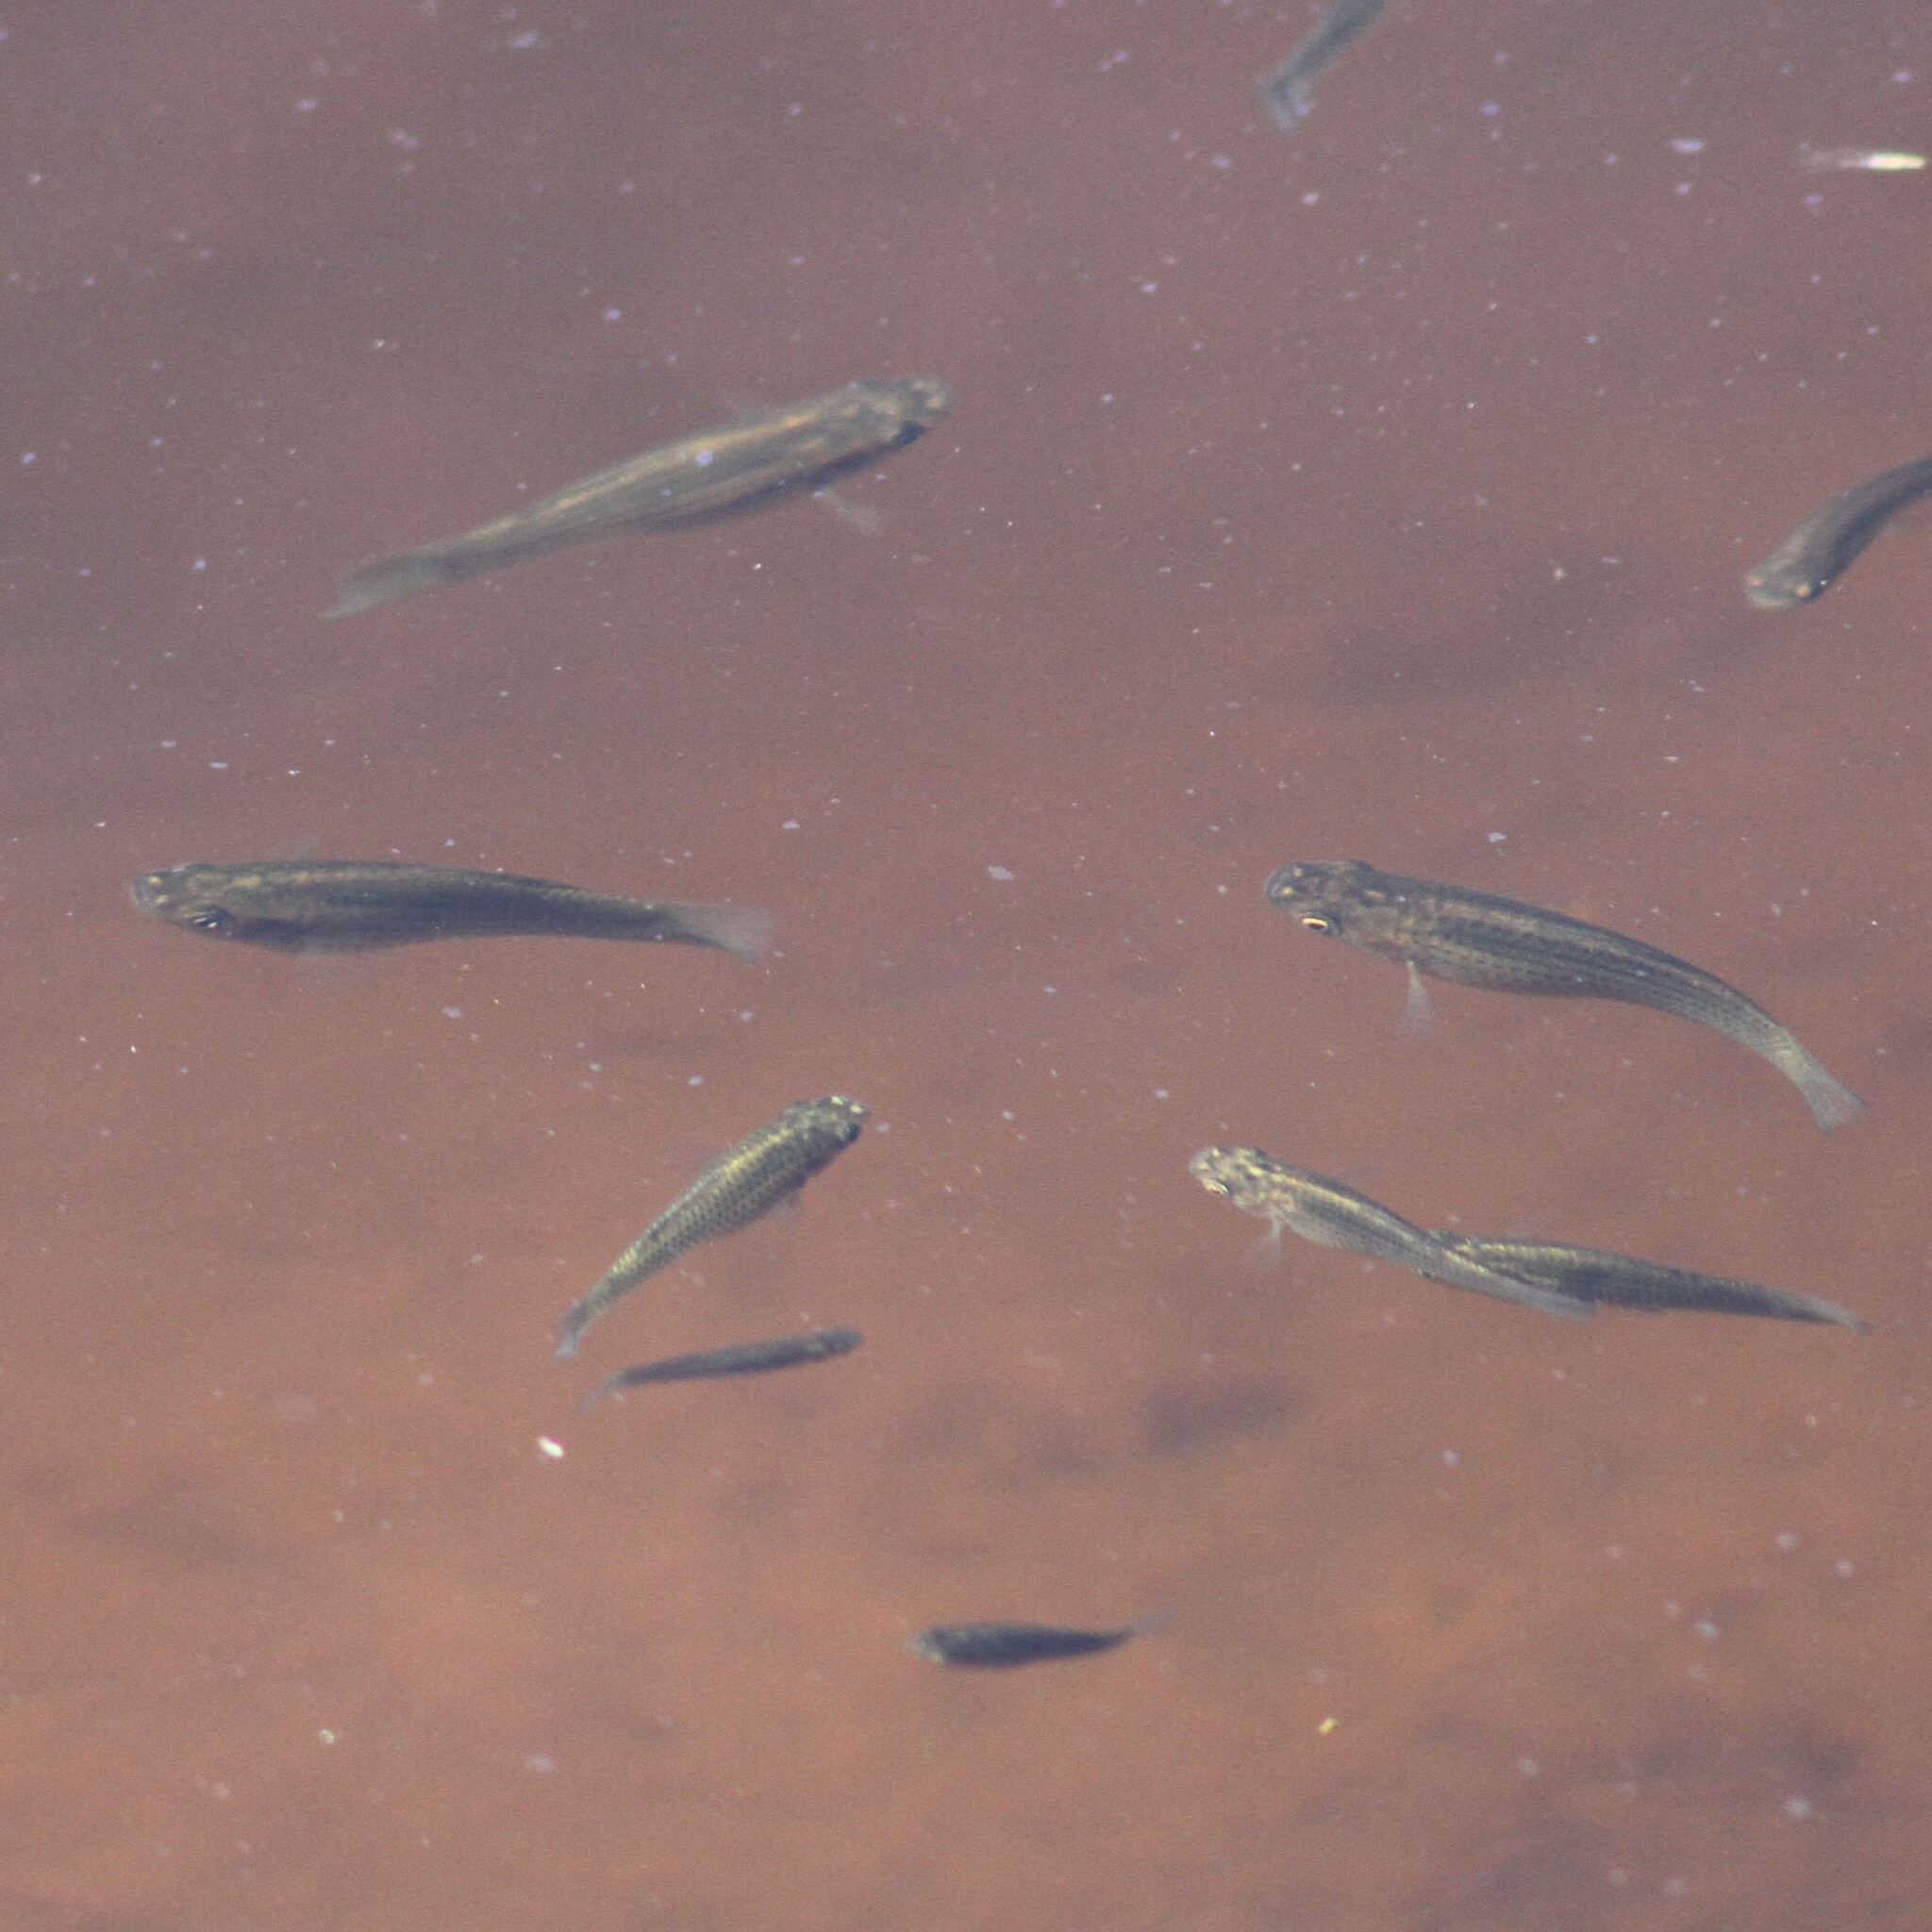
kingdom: Animalia
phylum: Chordata
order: Cyprinodontiformes
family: Poeciliidae
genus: Poecilia
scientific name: Poecilia latipinna
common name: Sailfin molly
